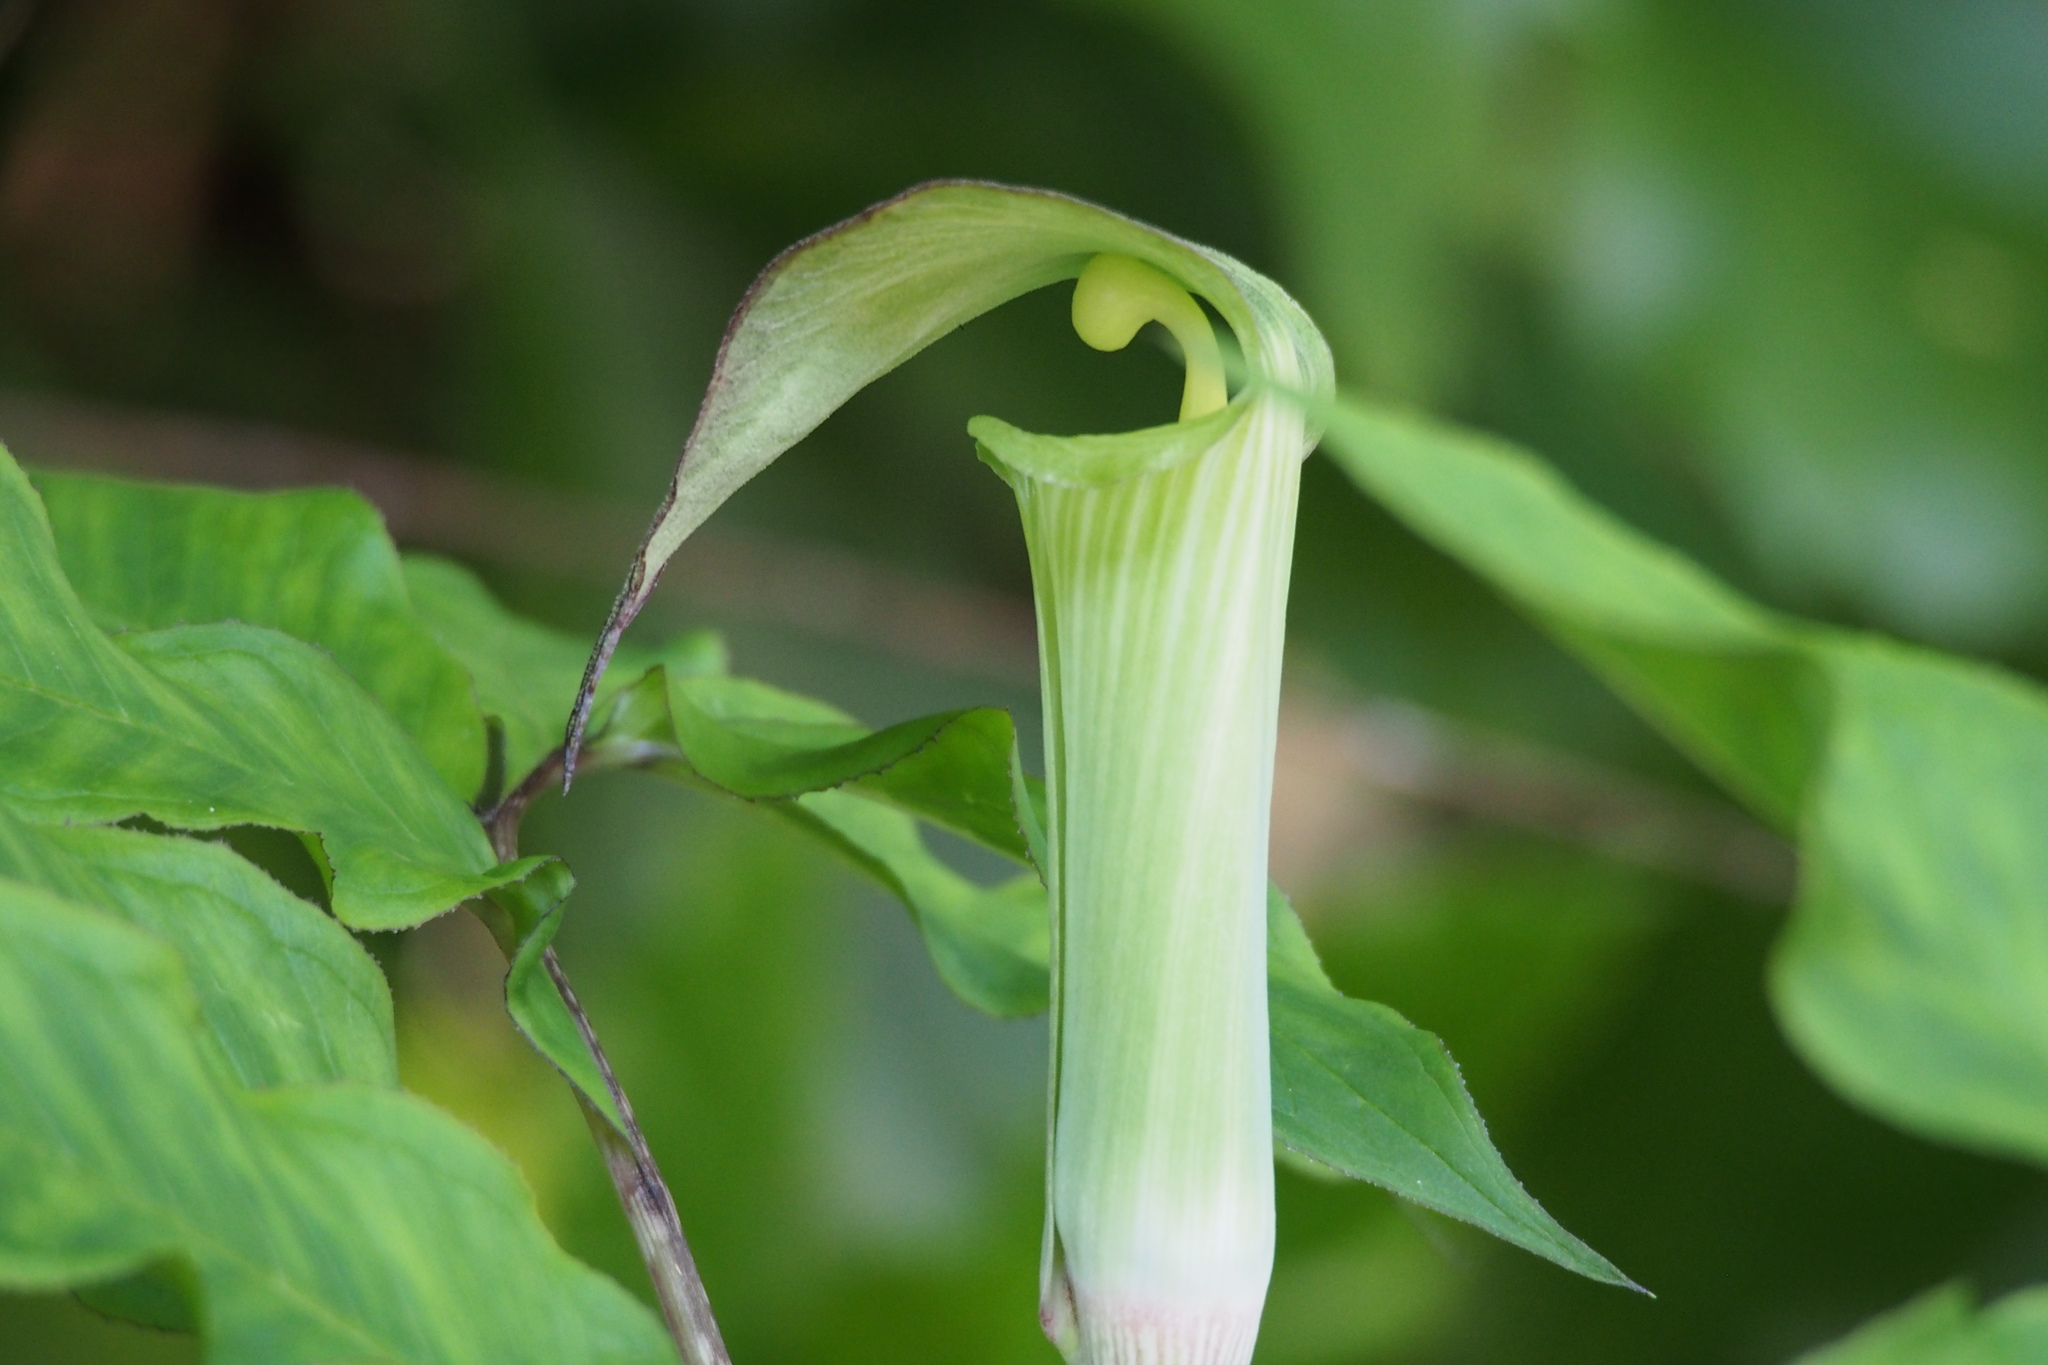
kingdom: Plantae
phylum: Tracheophyta
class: Liliopsida
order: Alismatales
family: Araceae
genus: Arisaema
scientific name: Arisaema yamatense
